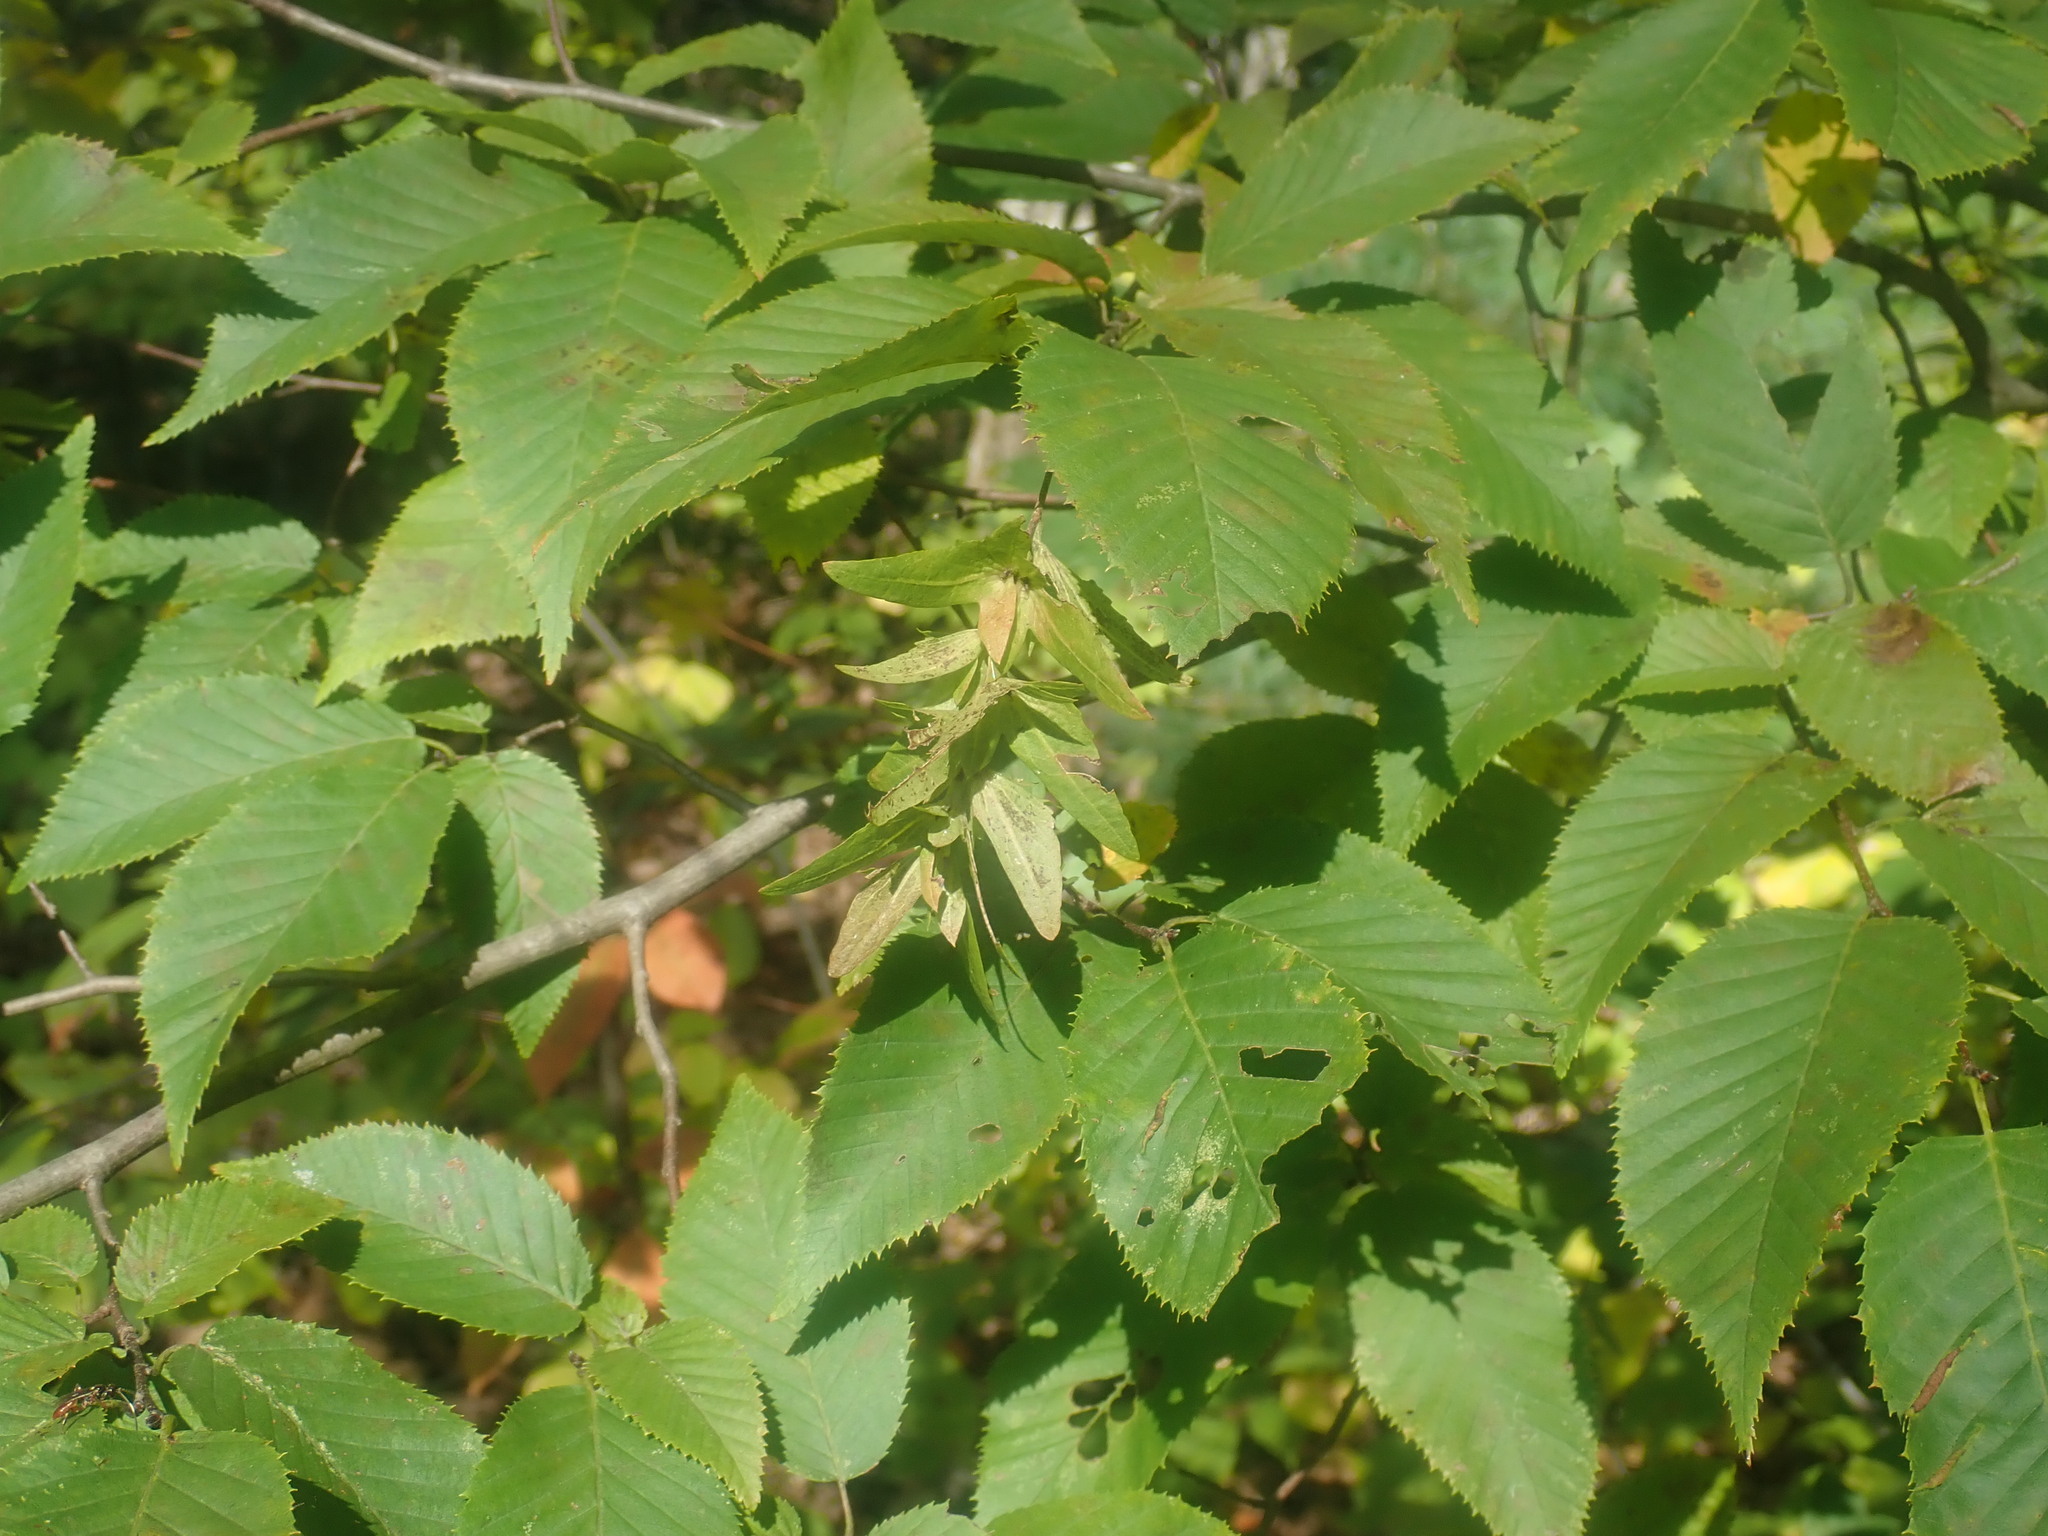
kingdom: Plantae
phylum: Tracheophyta
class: Magnoliopsida
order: Fagales
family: Betulaceae
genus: Carpinus
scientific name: Carpinus caroliniana
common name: American hornbeam
